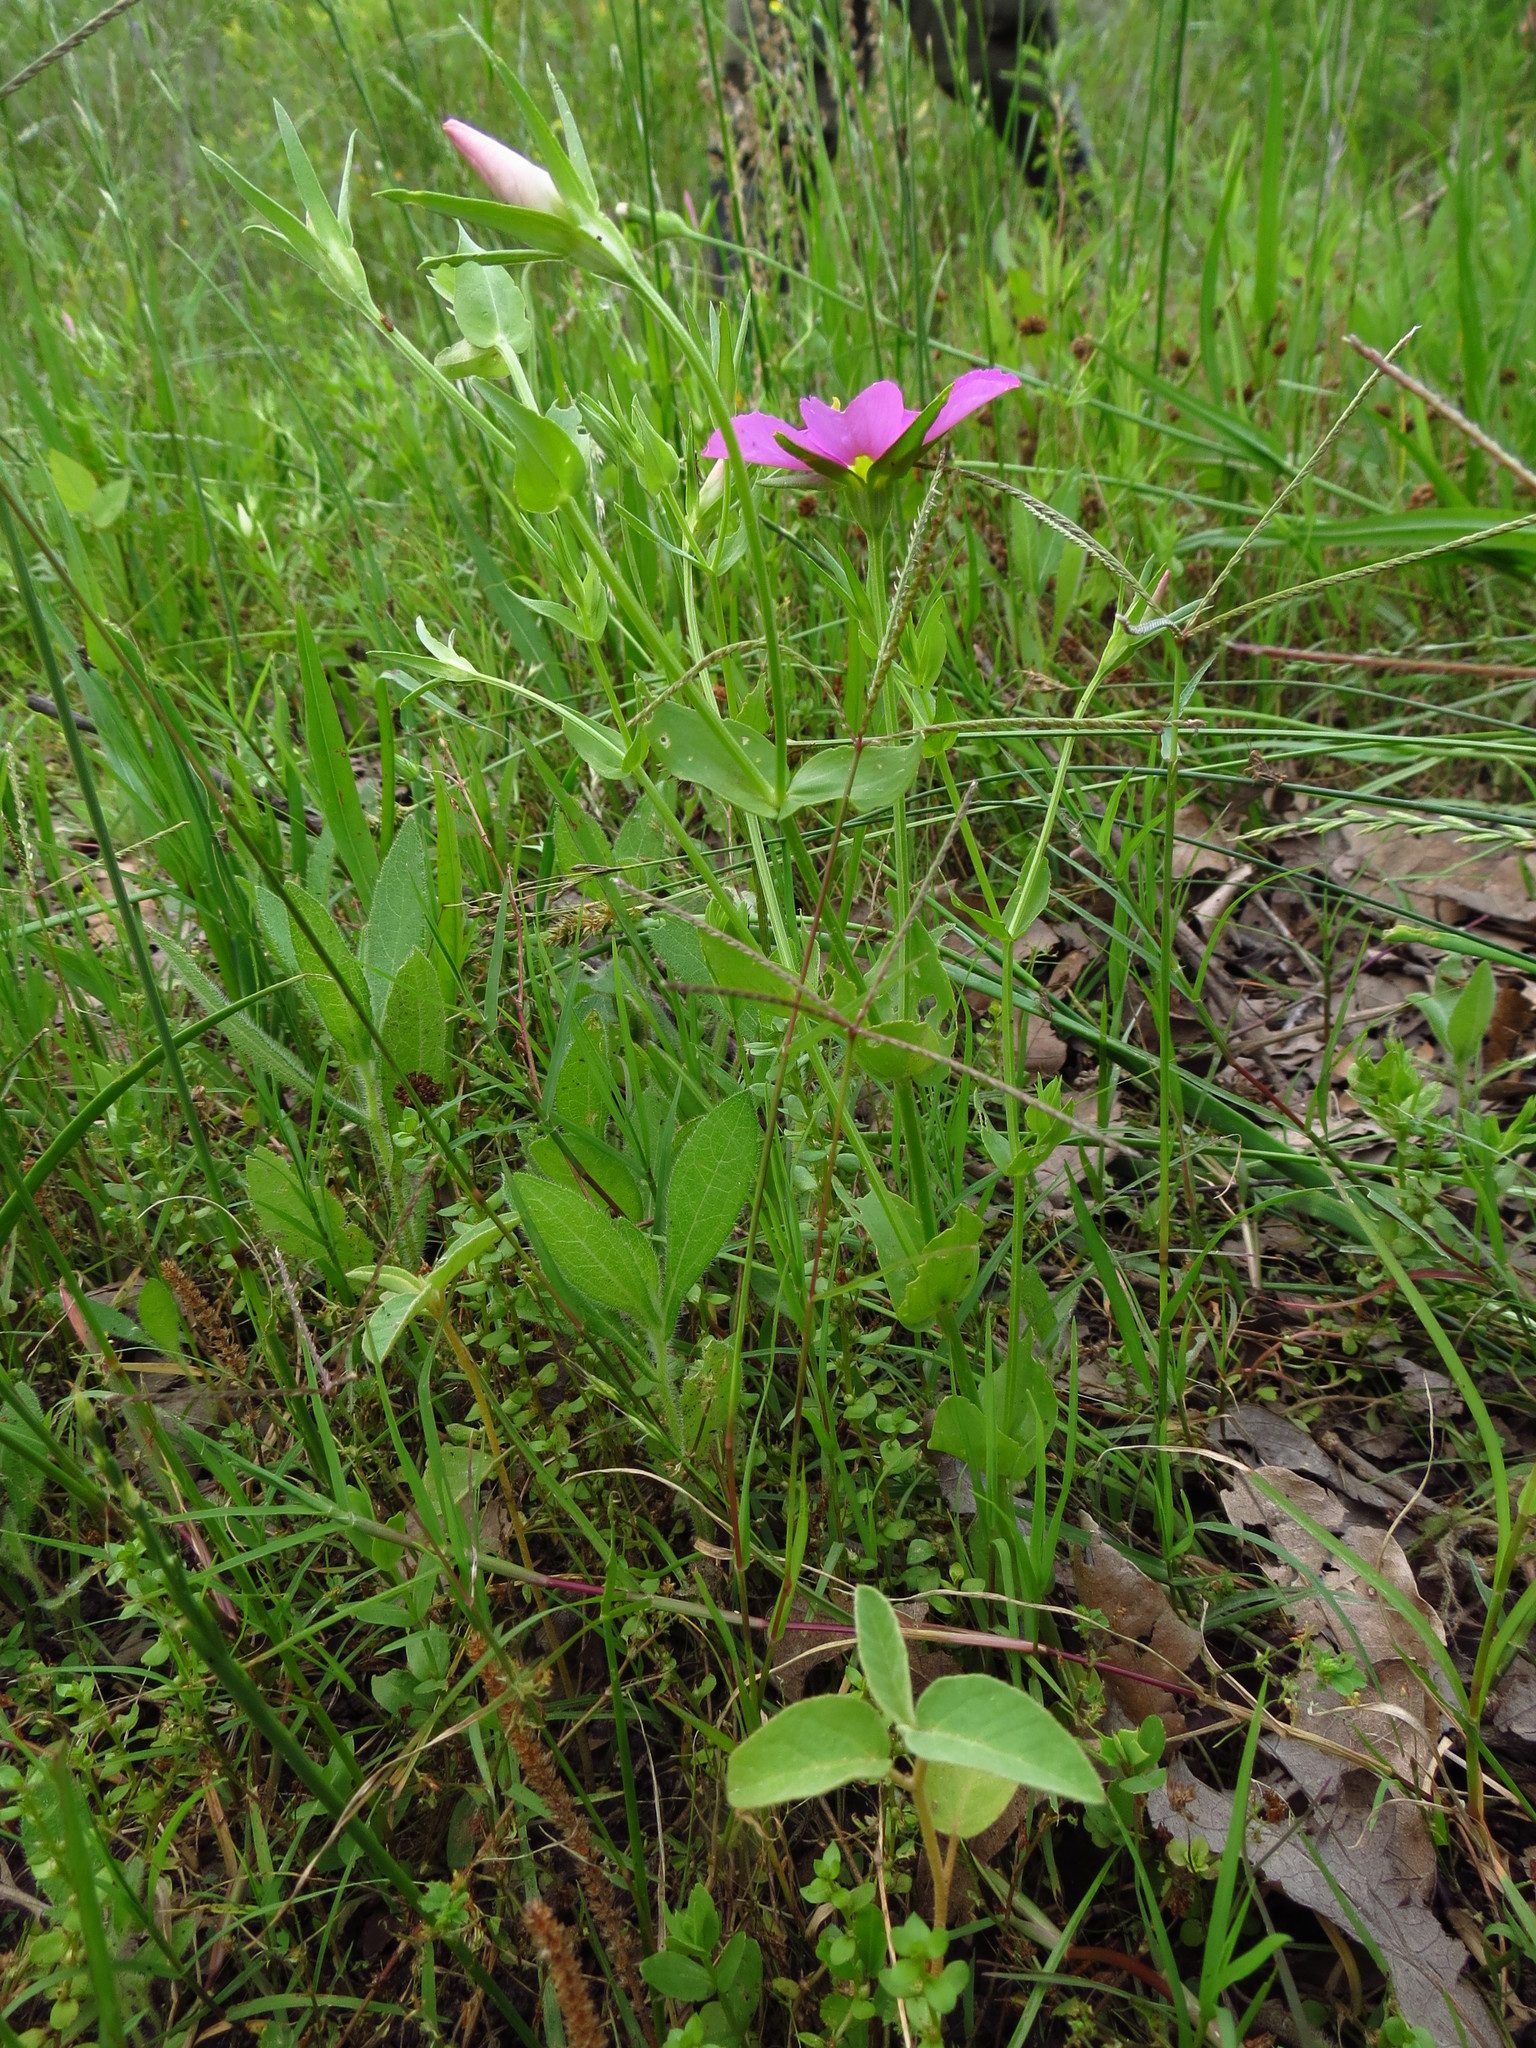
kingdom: Plantae
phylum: Tracheophyta
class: Magnoliopsida
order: Gentianales
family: Gentianaceae
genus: Sabatia
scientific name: Sabatia campestris
